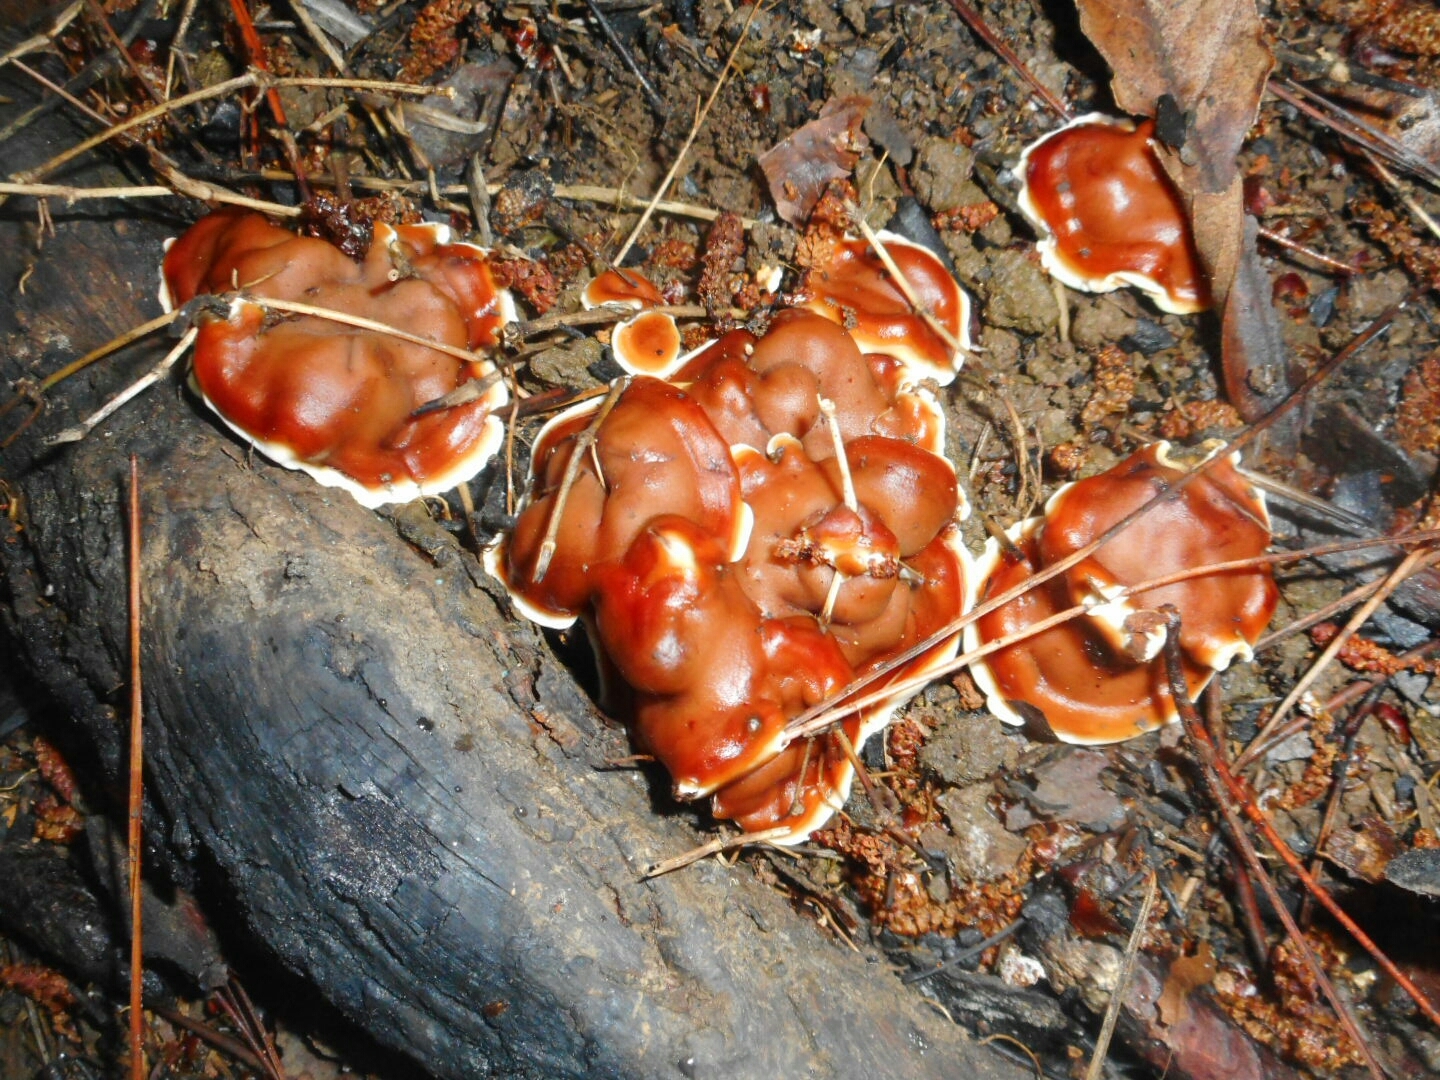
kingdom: Fungi
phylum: Ascomycota
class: Pezizomycetes
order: Pezizales
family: Rhizinaceae
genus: Rhizina
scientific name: Rhizina undulata
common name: Pine firefungus
